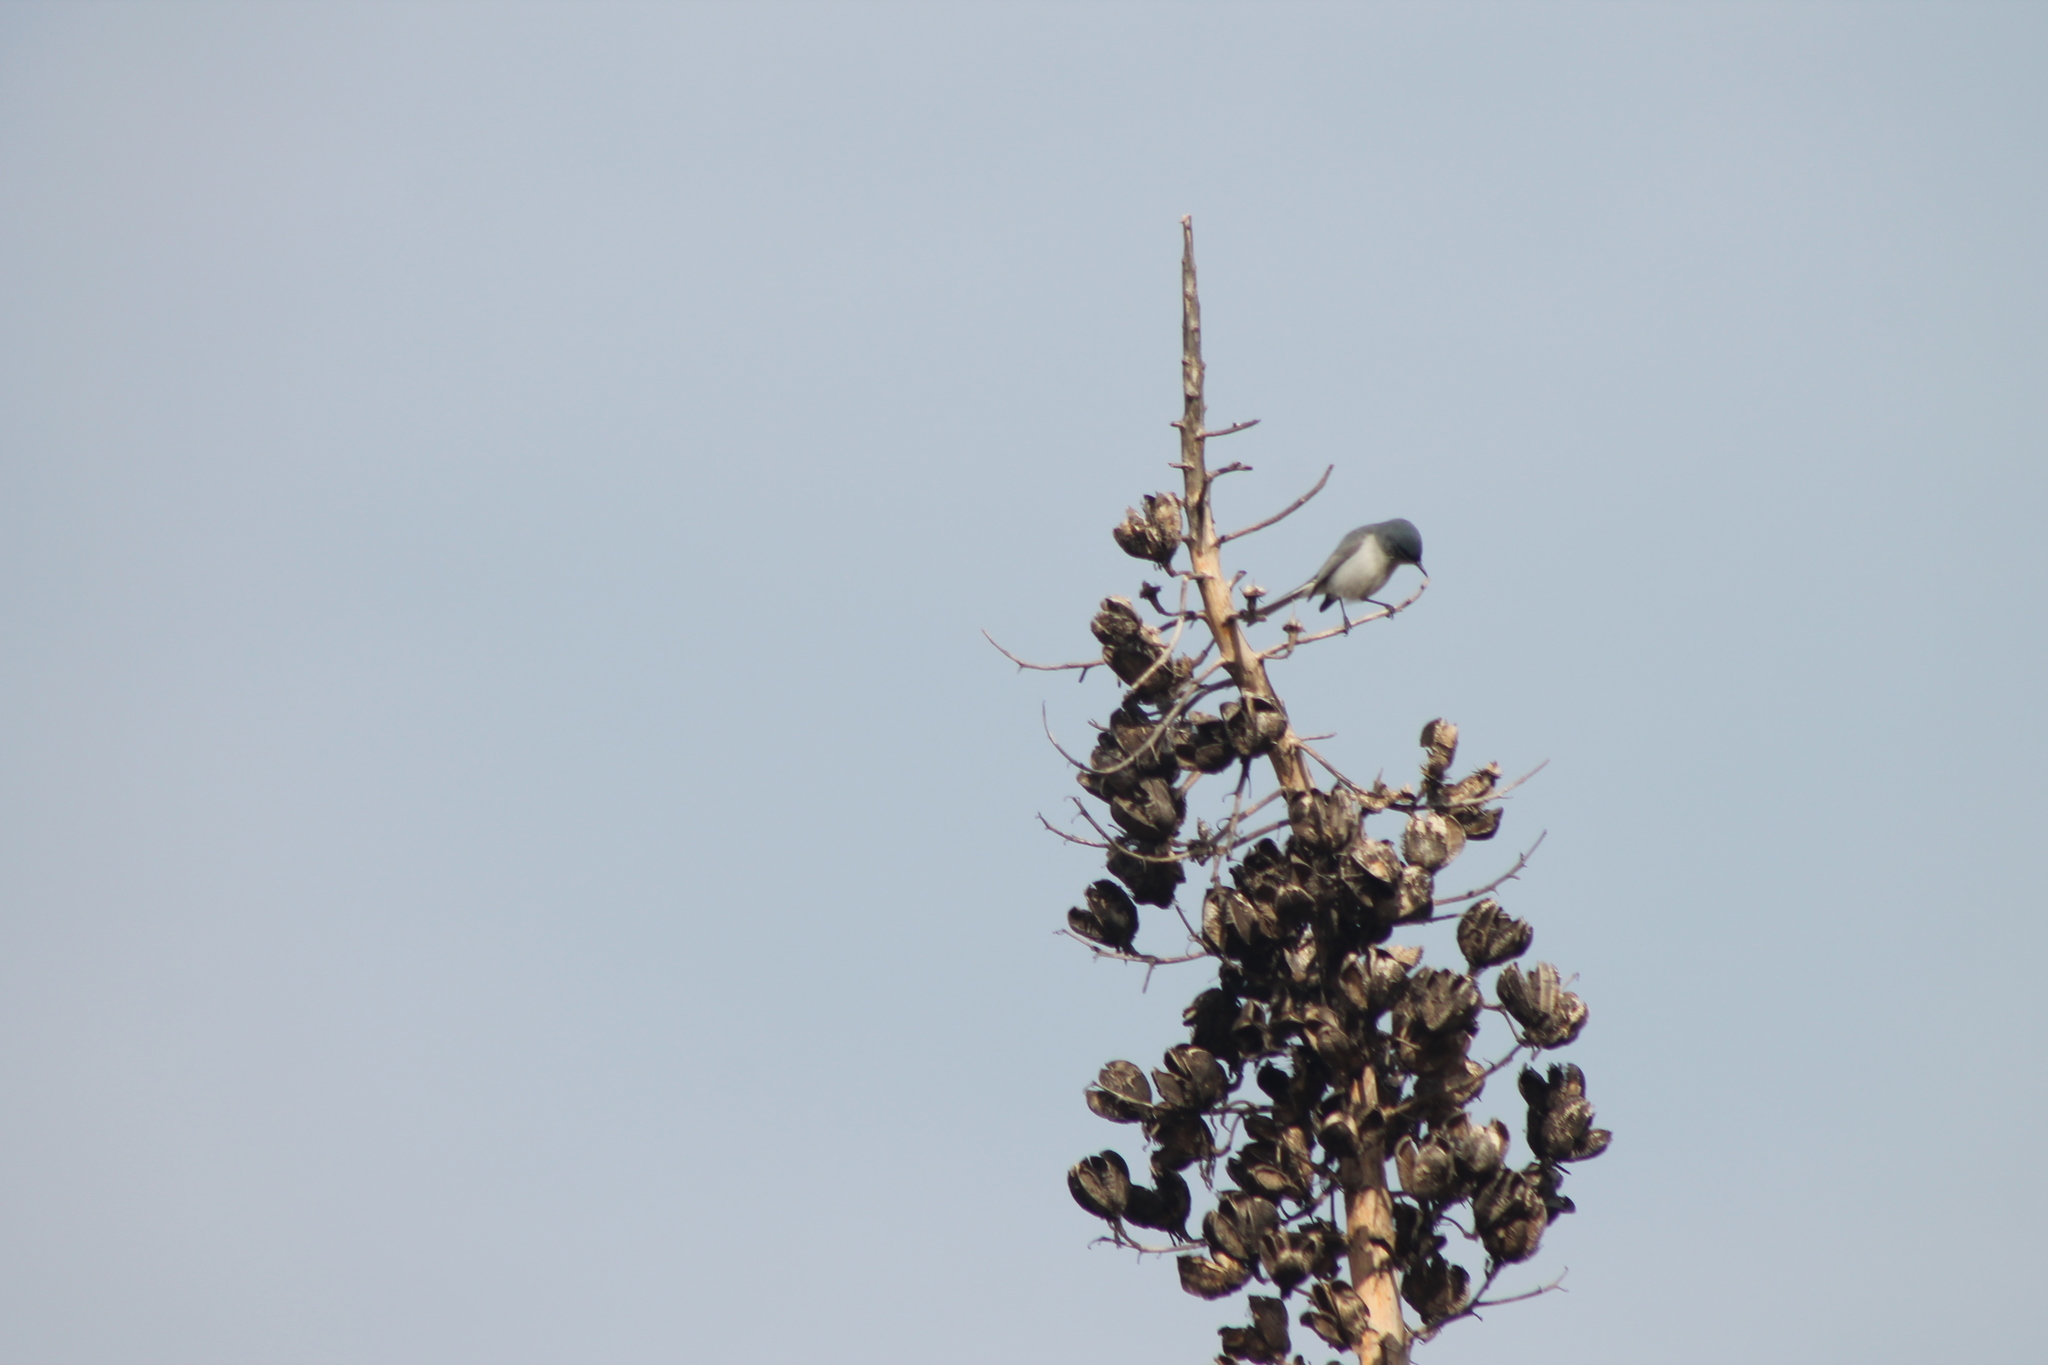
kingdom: Animalia
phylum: Chordata
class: Aves
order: Passeriformes
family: Polioptilidae
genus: Polioptila
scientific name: Polioptila caerulea
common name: Blue-gray gnatcatcher
